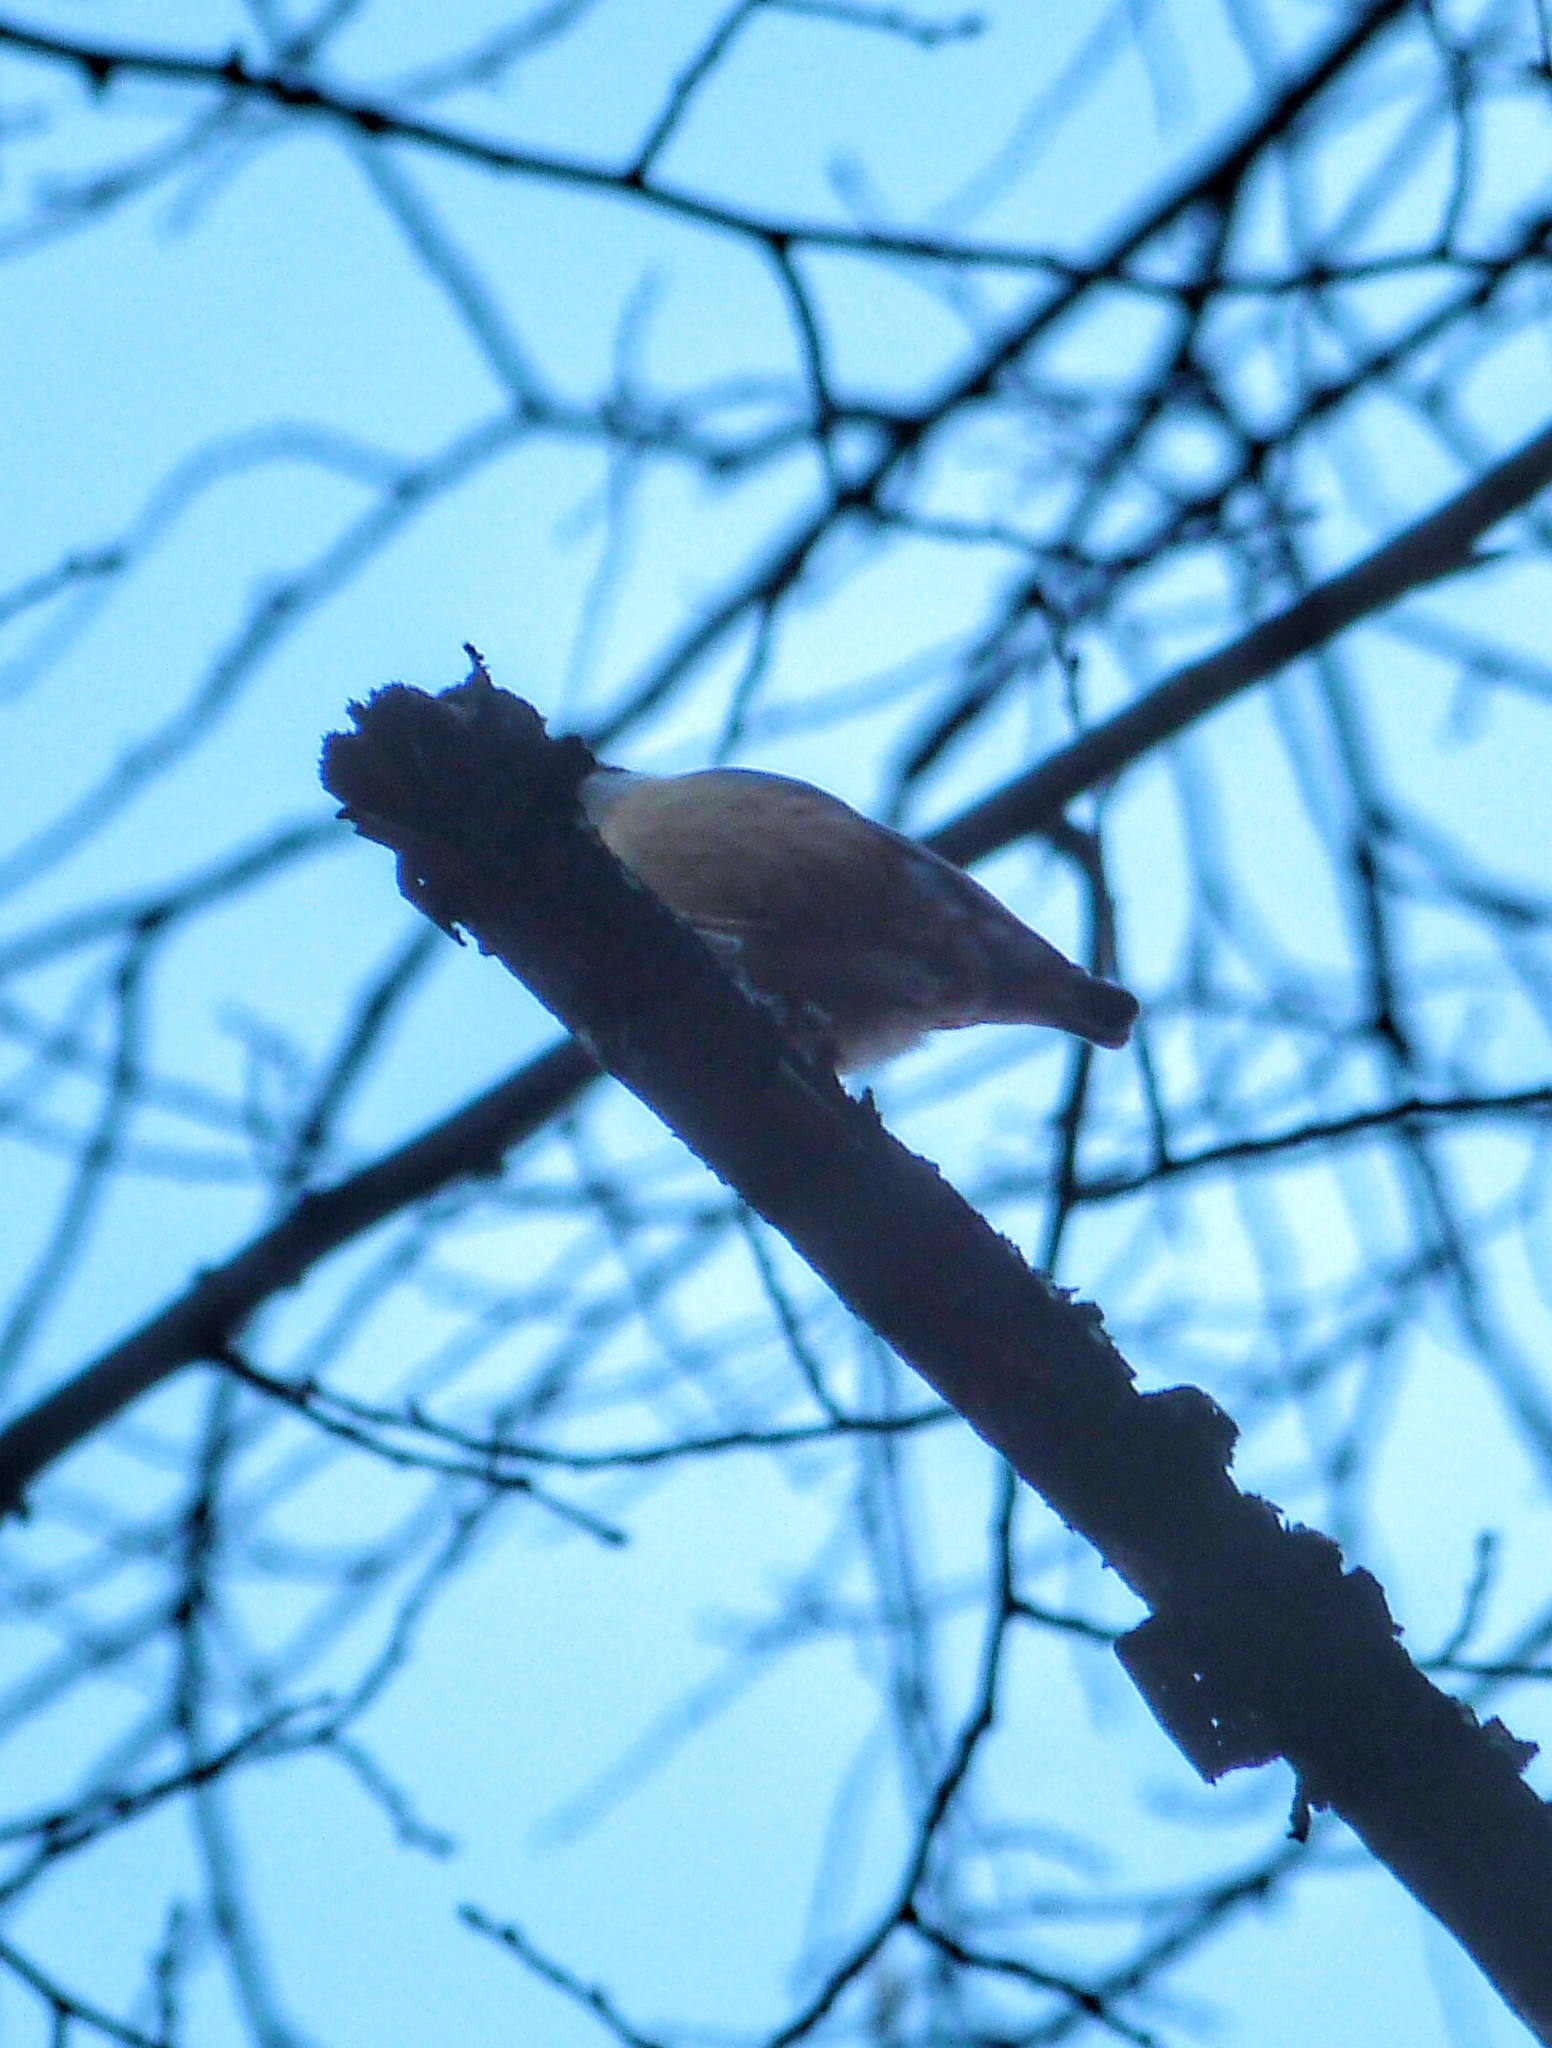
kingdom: Animalia
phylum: Chordata
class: Aves
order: Passeriformes
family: Sittidae
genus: Sitta
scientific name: Sitta europaea
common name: Eurasian nuthatch
